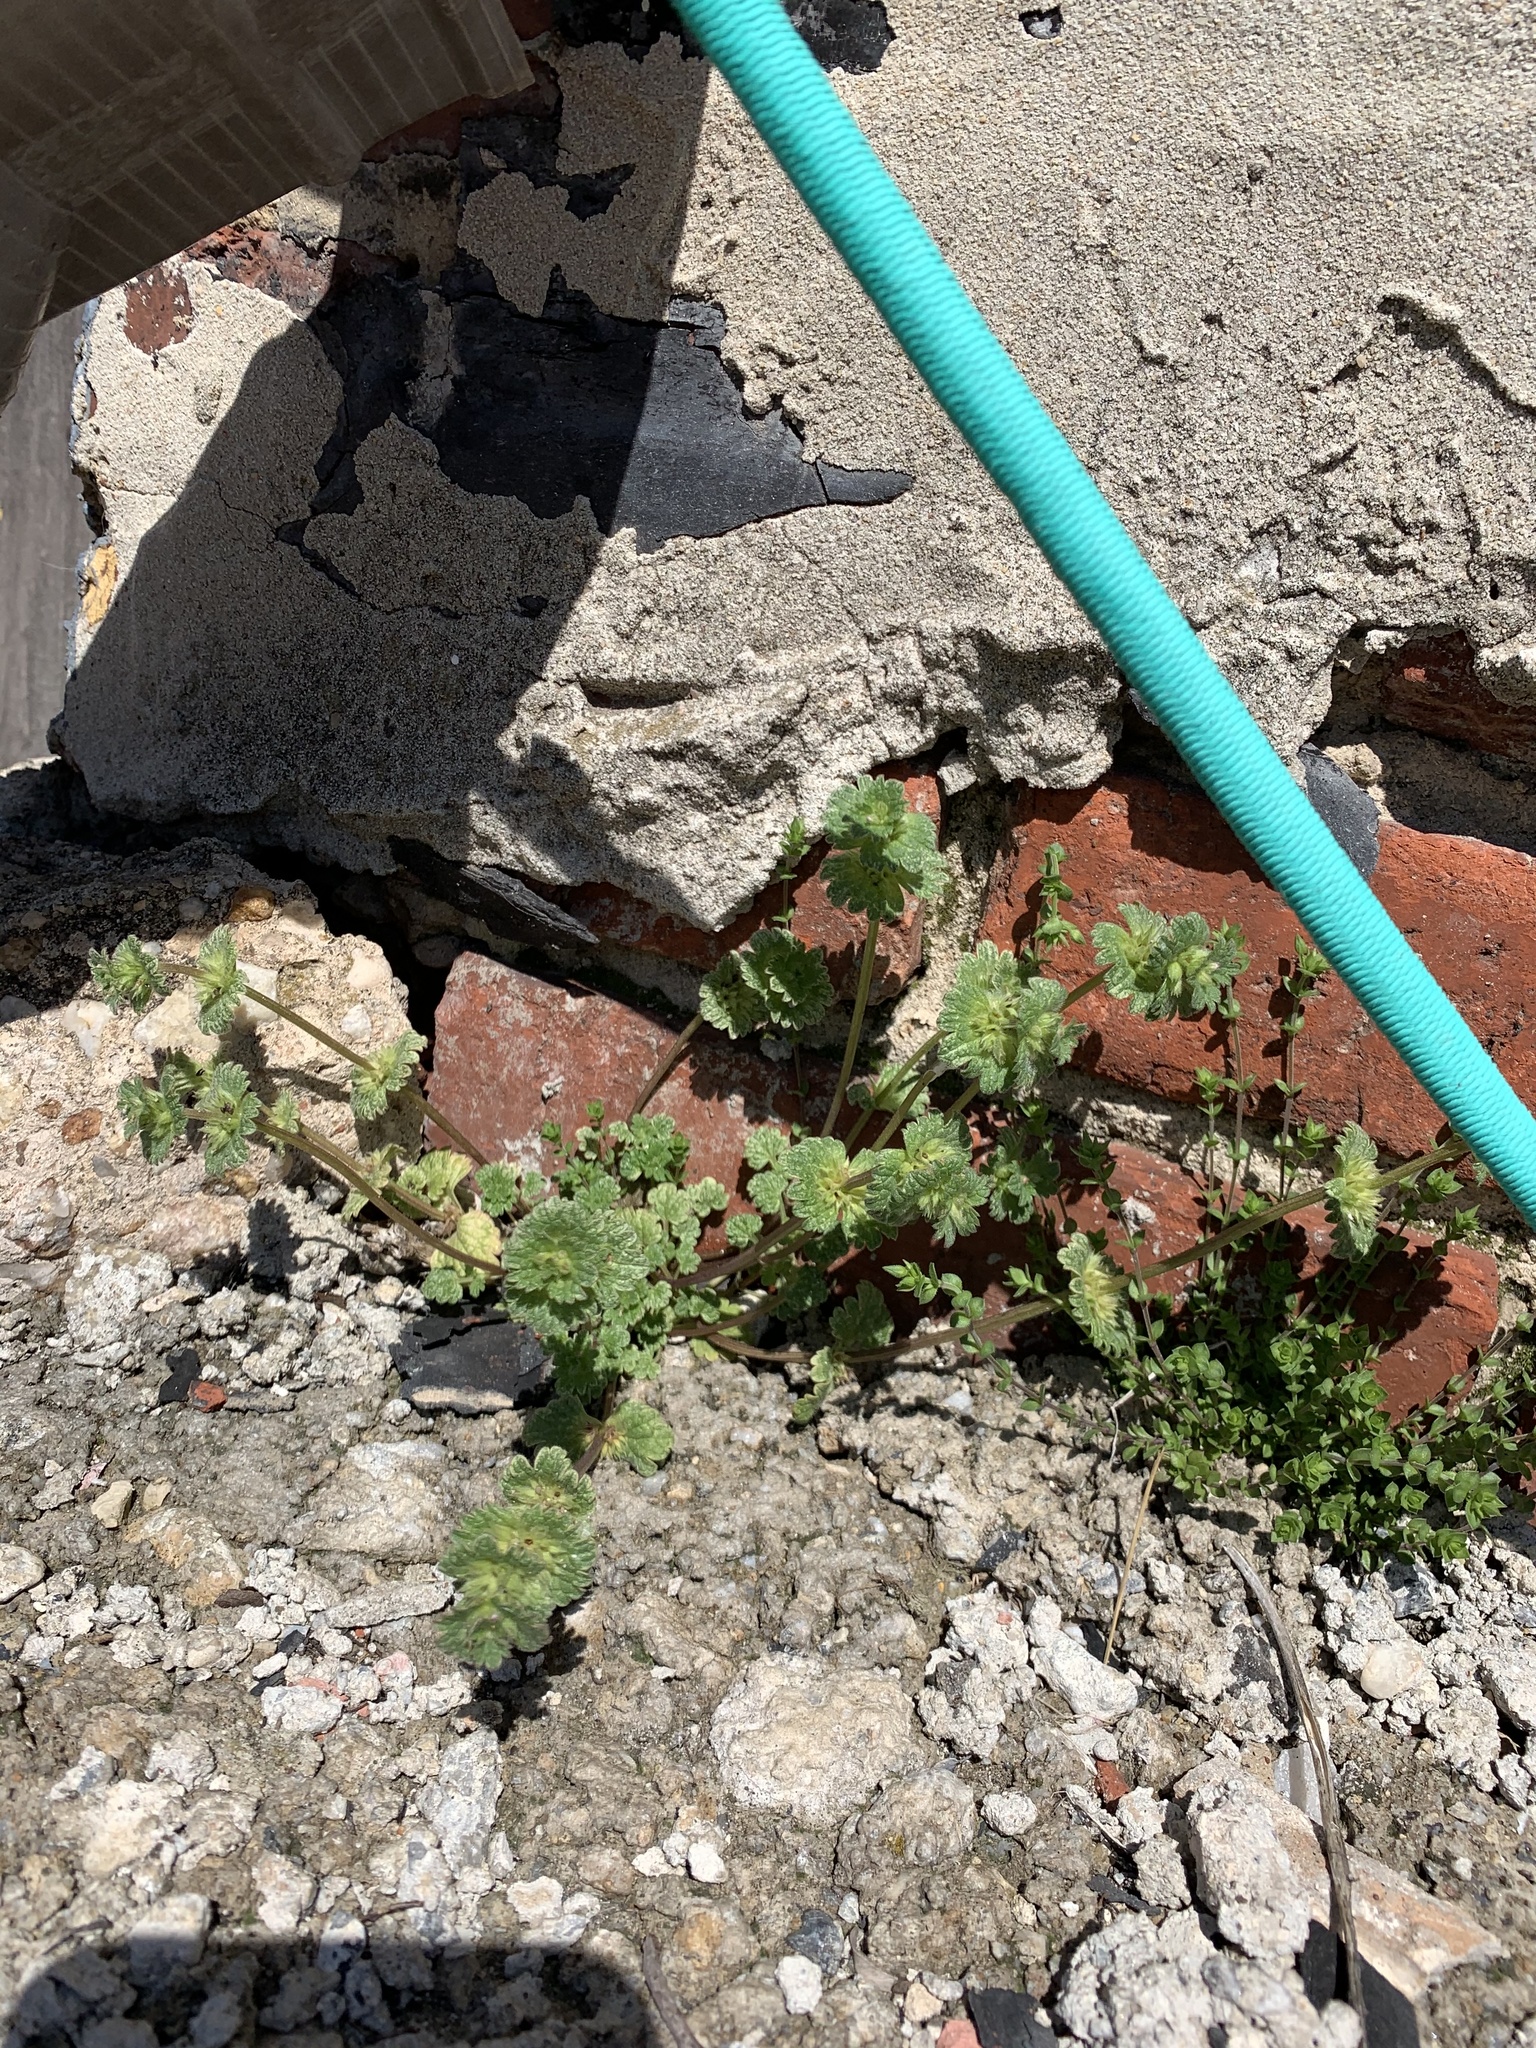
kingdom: Plantae
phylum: Tracheophyta
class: Magnoliopsida
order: Lamiales
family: Lamiaceae
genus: Lamium
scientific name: Lamium amplexicaule
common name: Henbit dead-nettle
